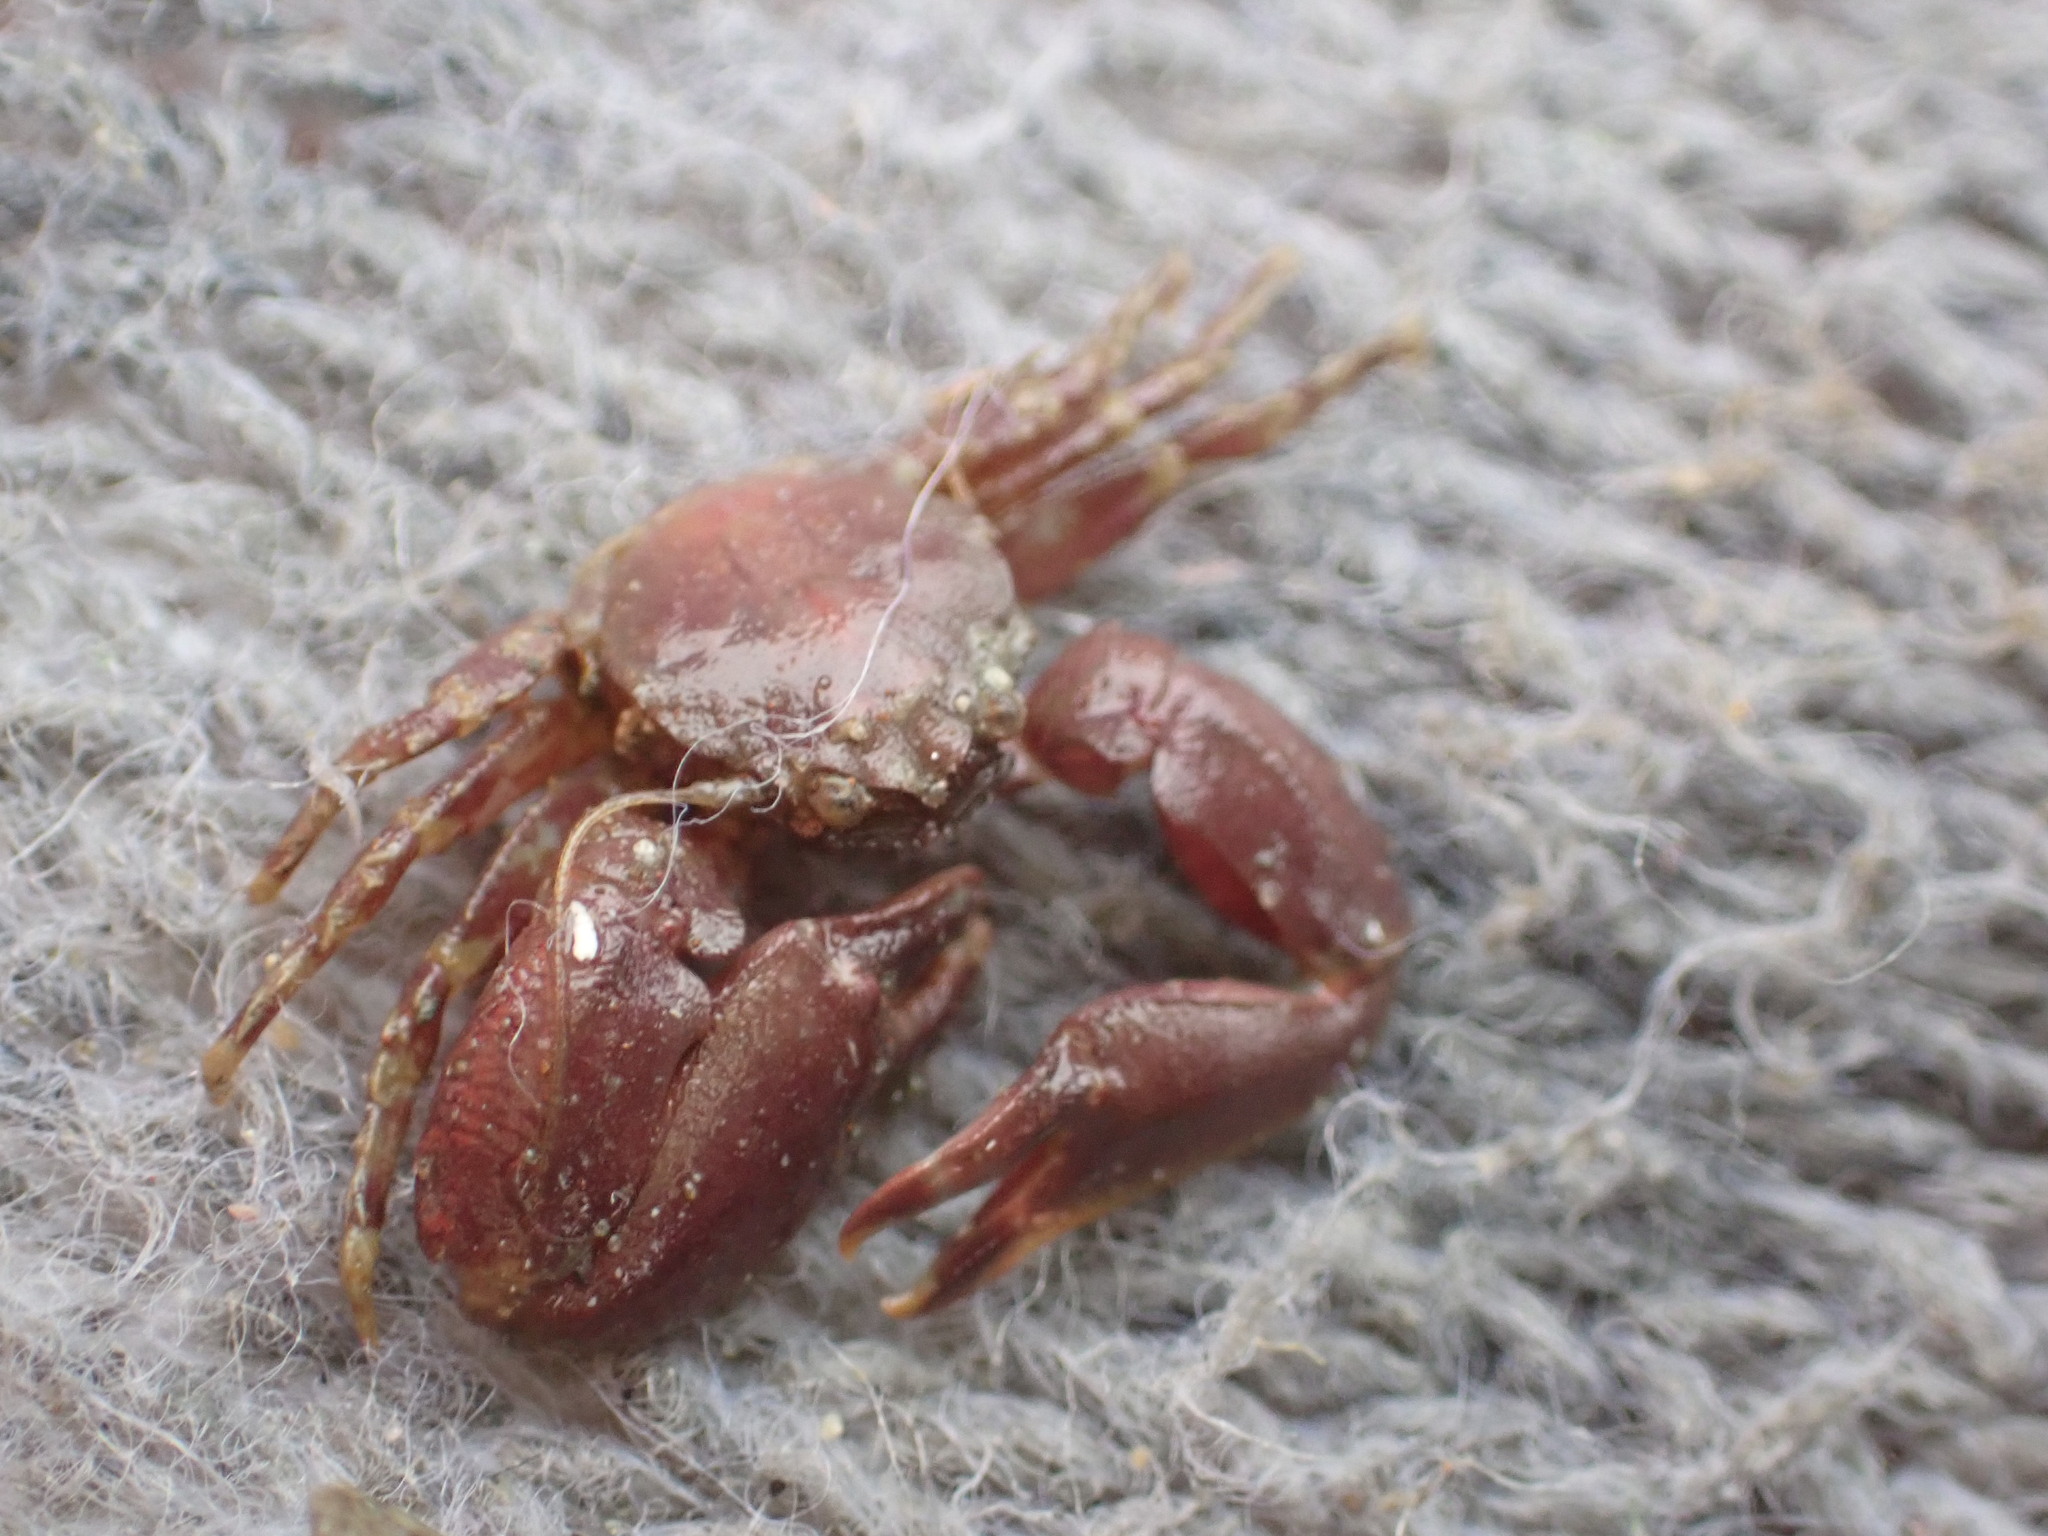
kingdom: Animalia
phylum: Arthropoda
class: Malacostraca
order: Decapoda
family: Porcellanidae
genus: Petrolisthes
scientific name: Petrolisthes novaezelandiae
